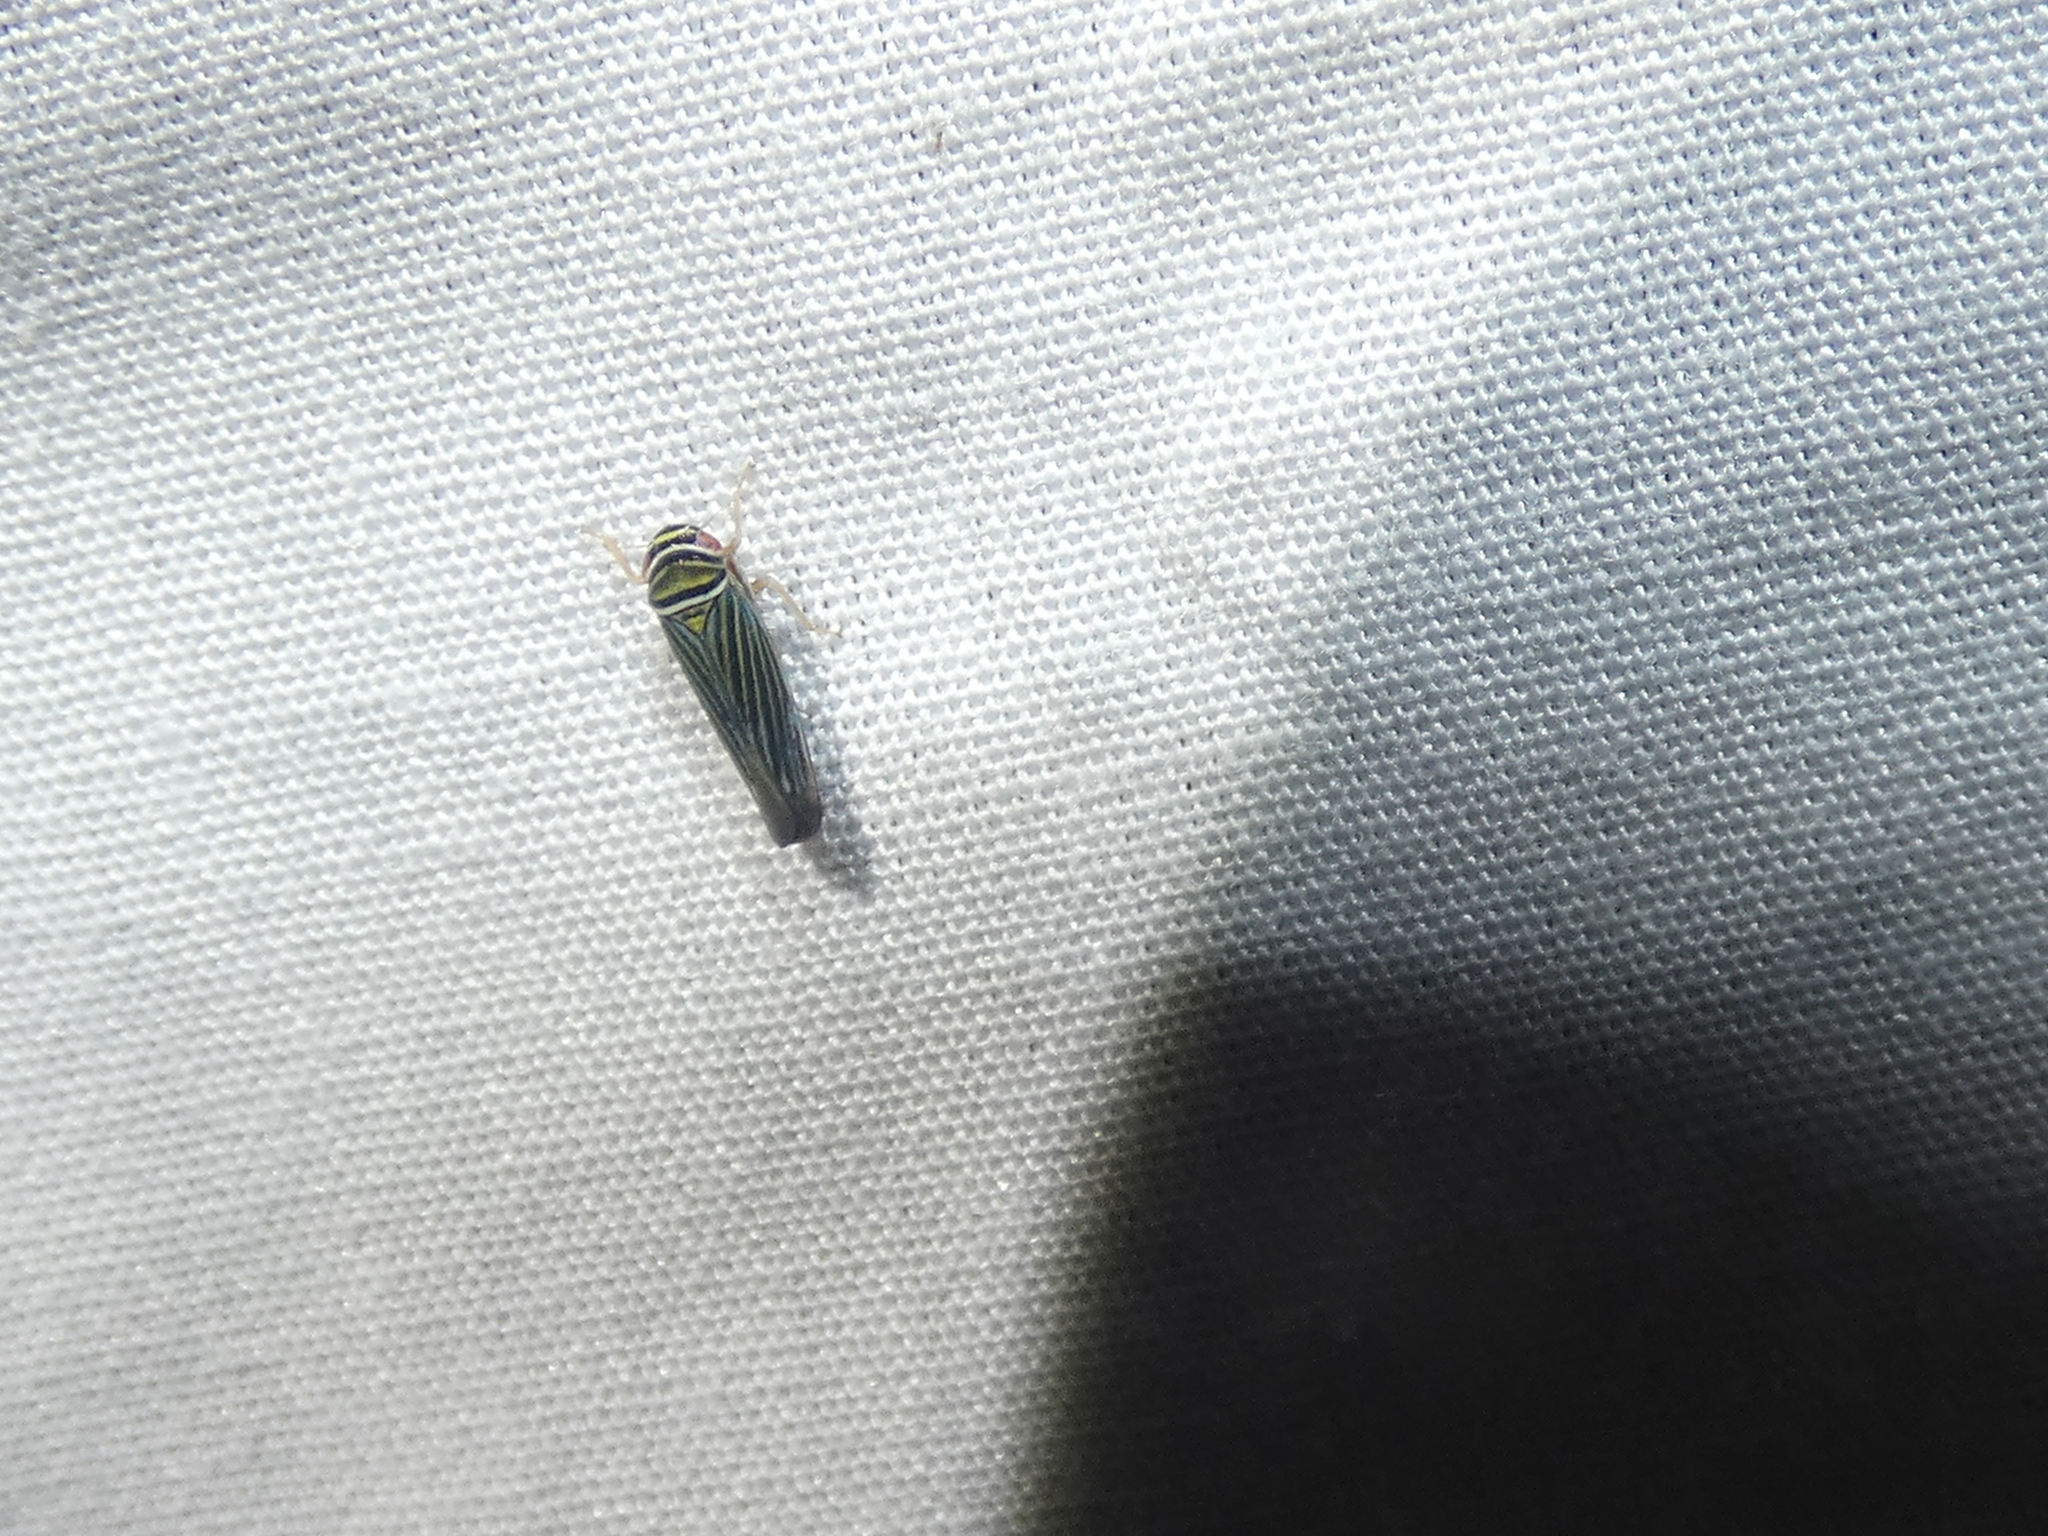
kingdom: Animalia
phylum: Arthropoda
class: Insecta
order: Hemiptera
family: Cicadellidae
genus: Tylozygus
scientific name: Tylozygus bifidus
